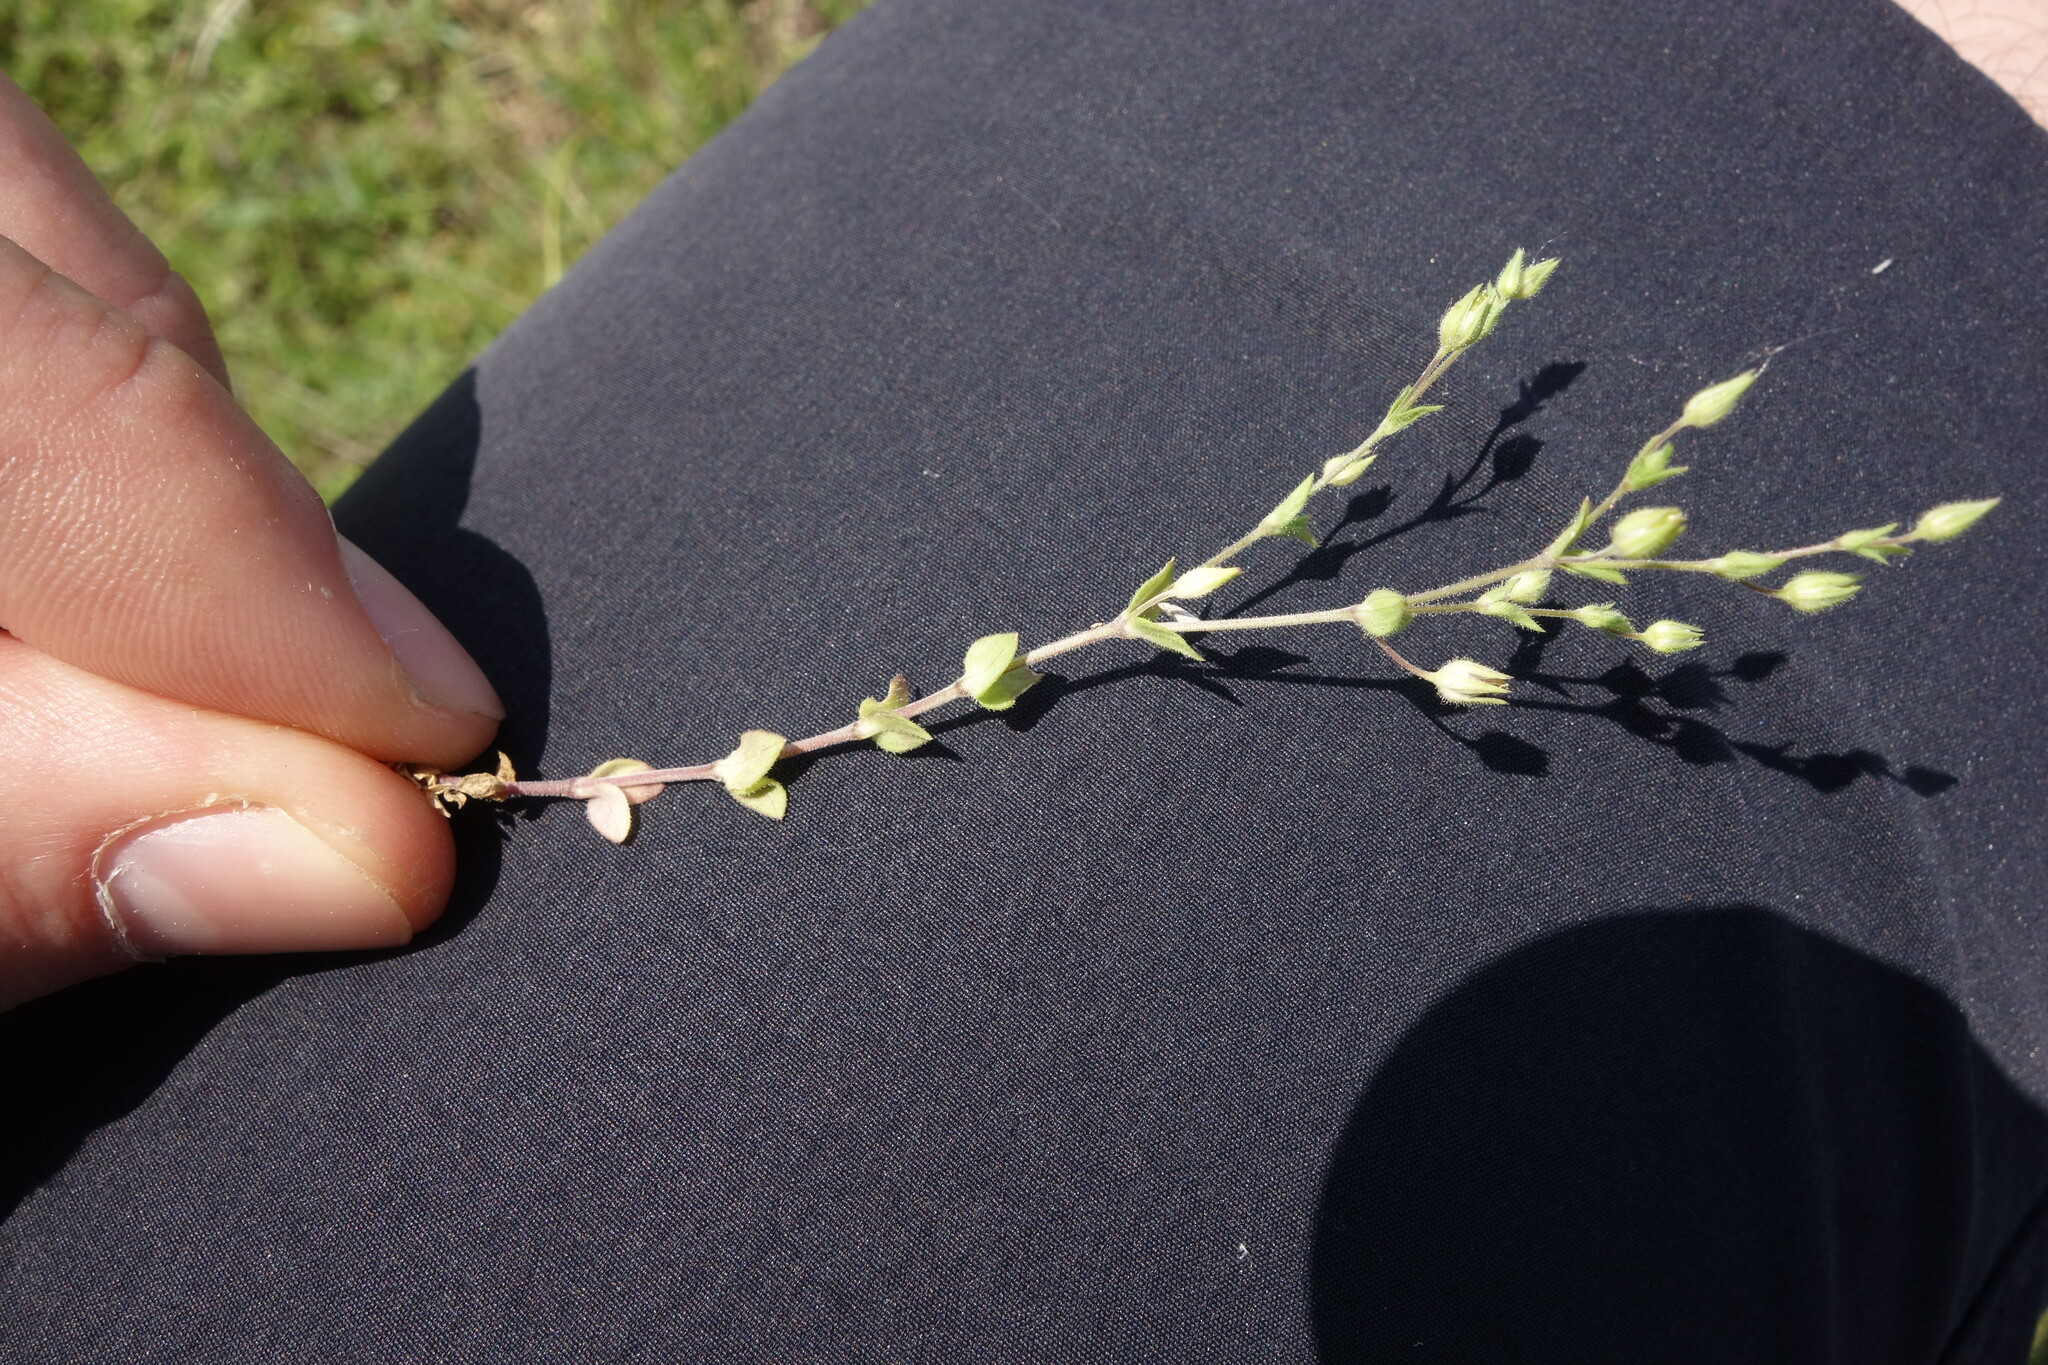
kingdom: Plantae
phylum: Tracheophyta
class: Magnoliopsida
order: Caryophyllales
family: Caryophyllaceae
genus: Arenaria
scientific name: Arenaria serpyllifolia
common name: Thyme-leaved sandwort
